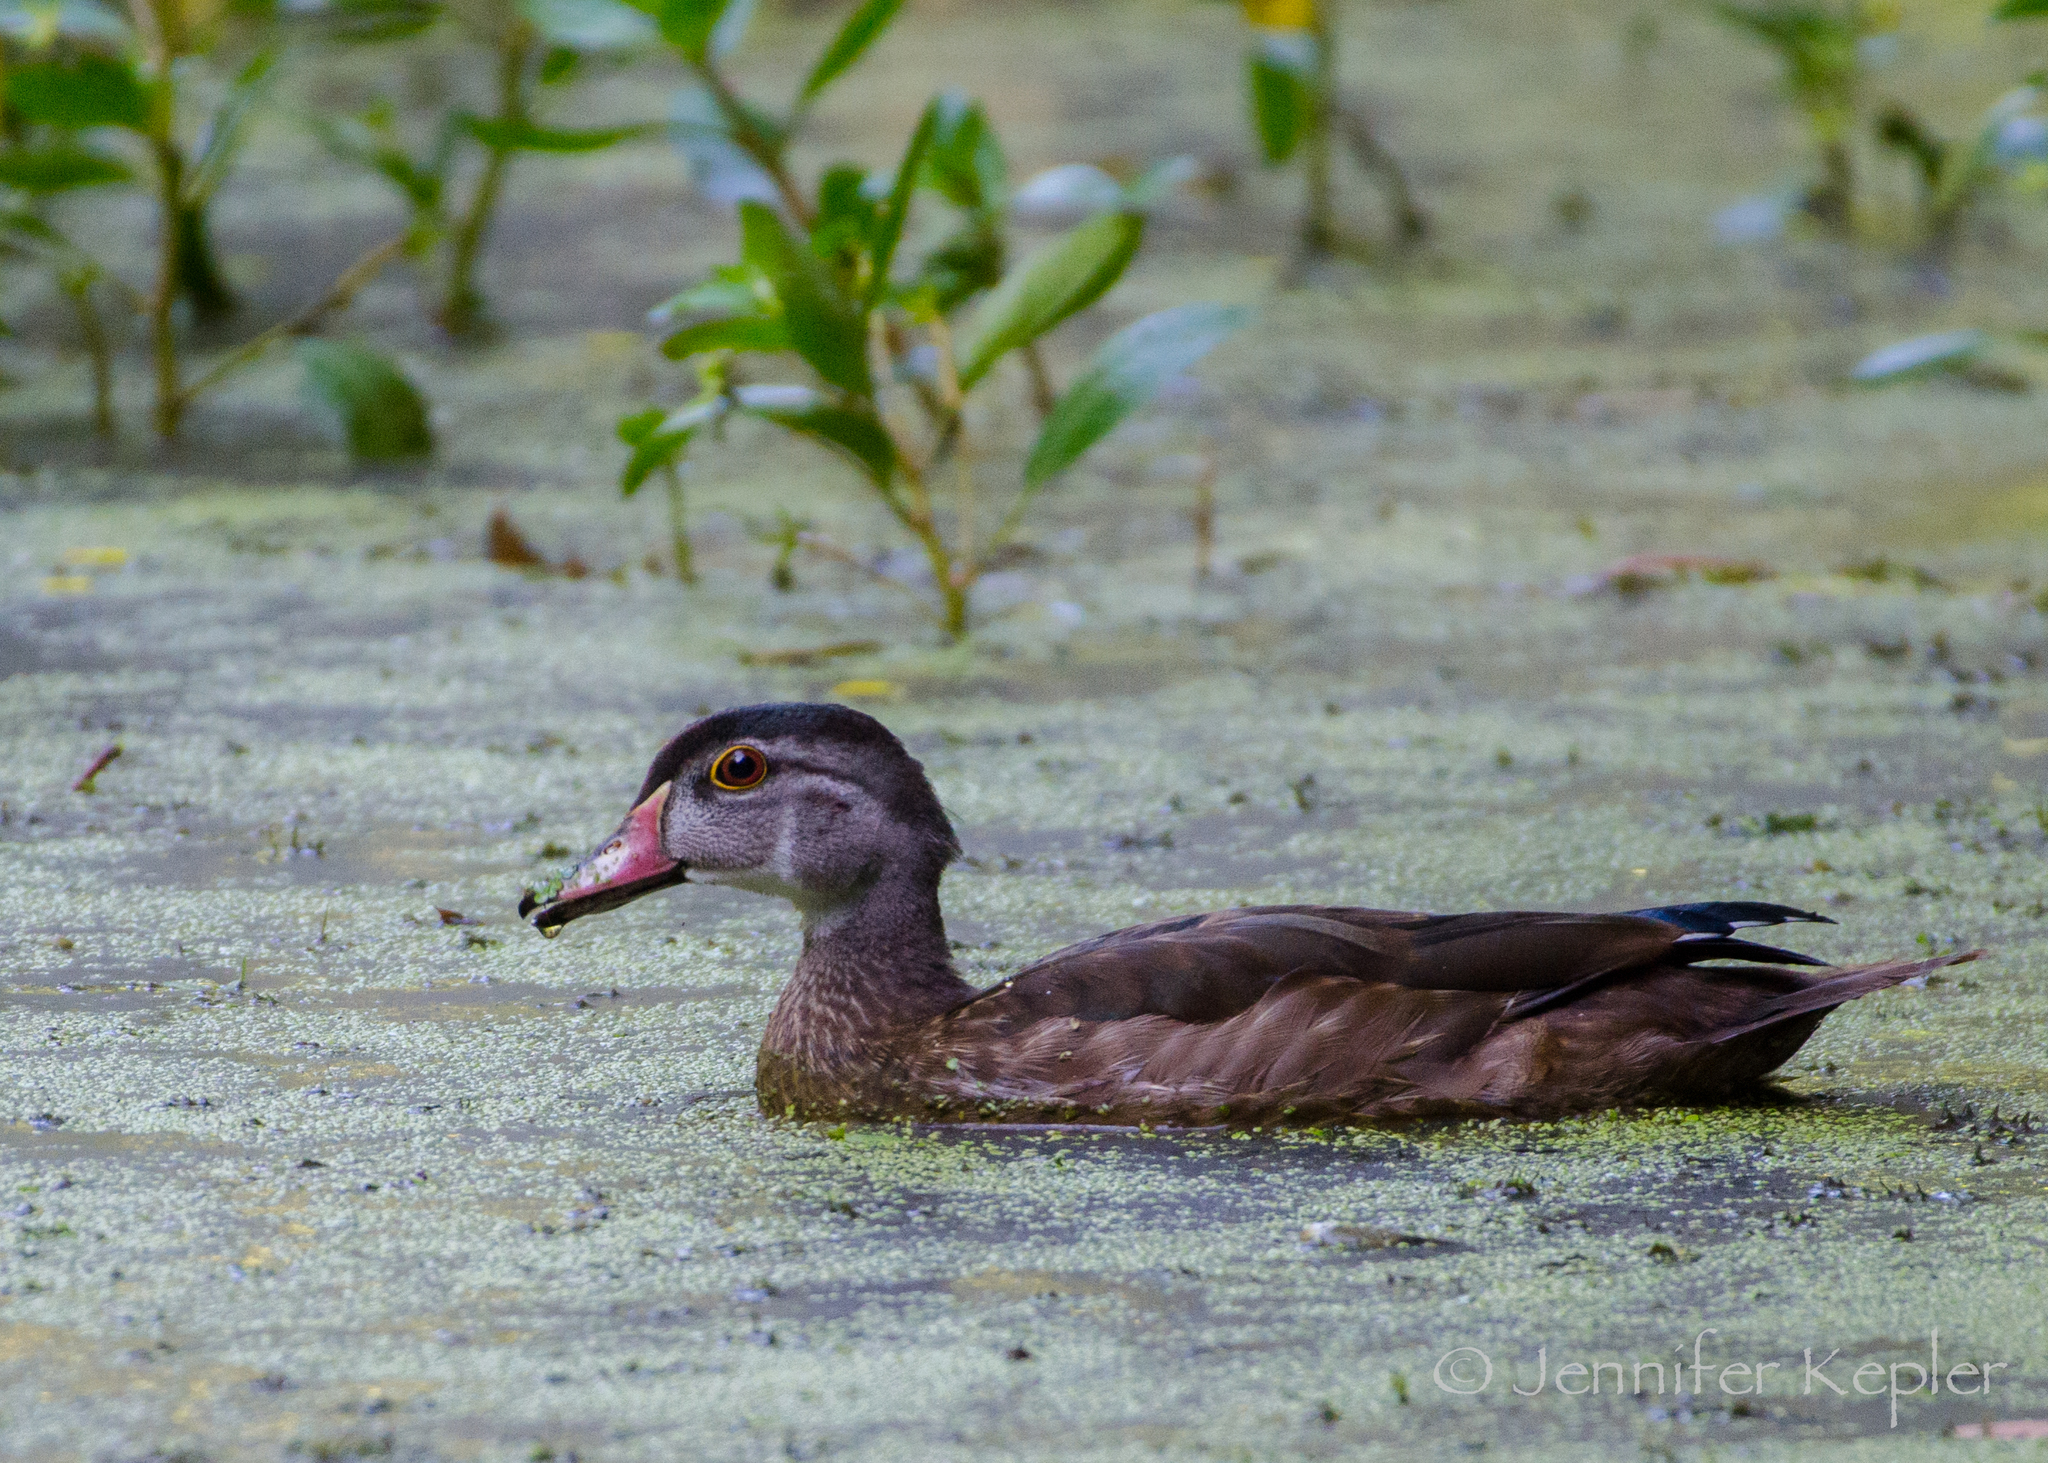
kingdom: Animalia
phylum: Chordata
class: Aves
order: Anseriformes
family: Anatidae
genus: Aix
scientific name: Aix sponsa
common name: Wood duck
